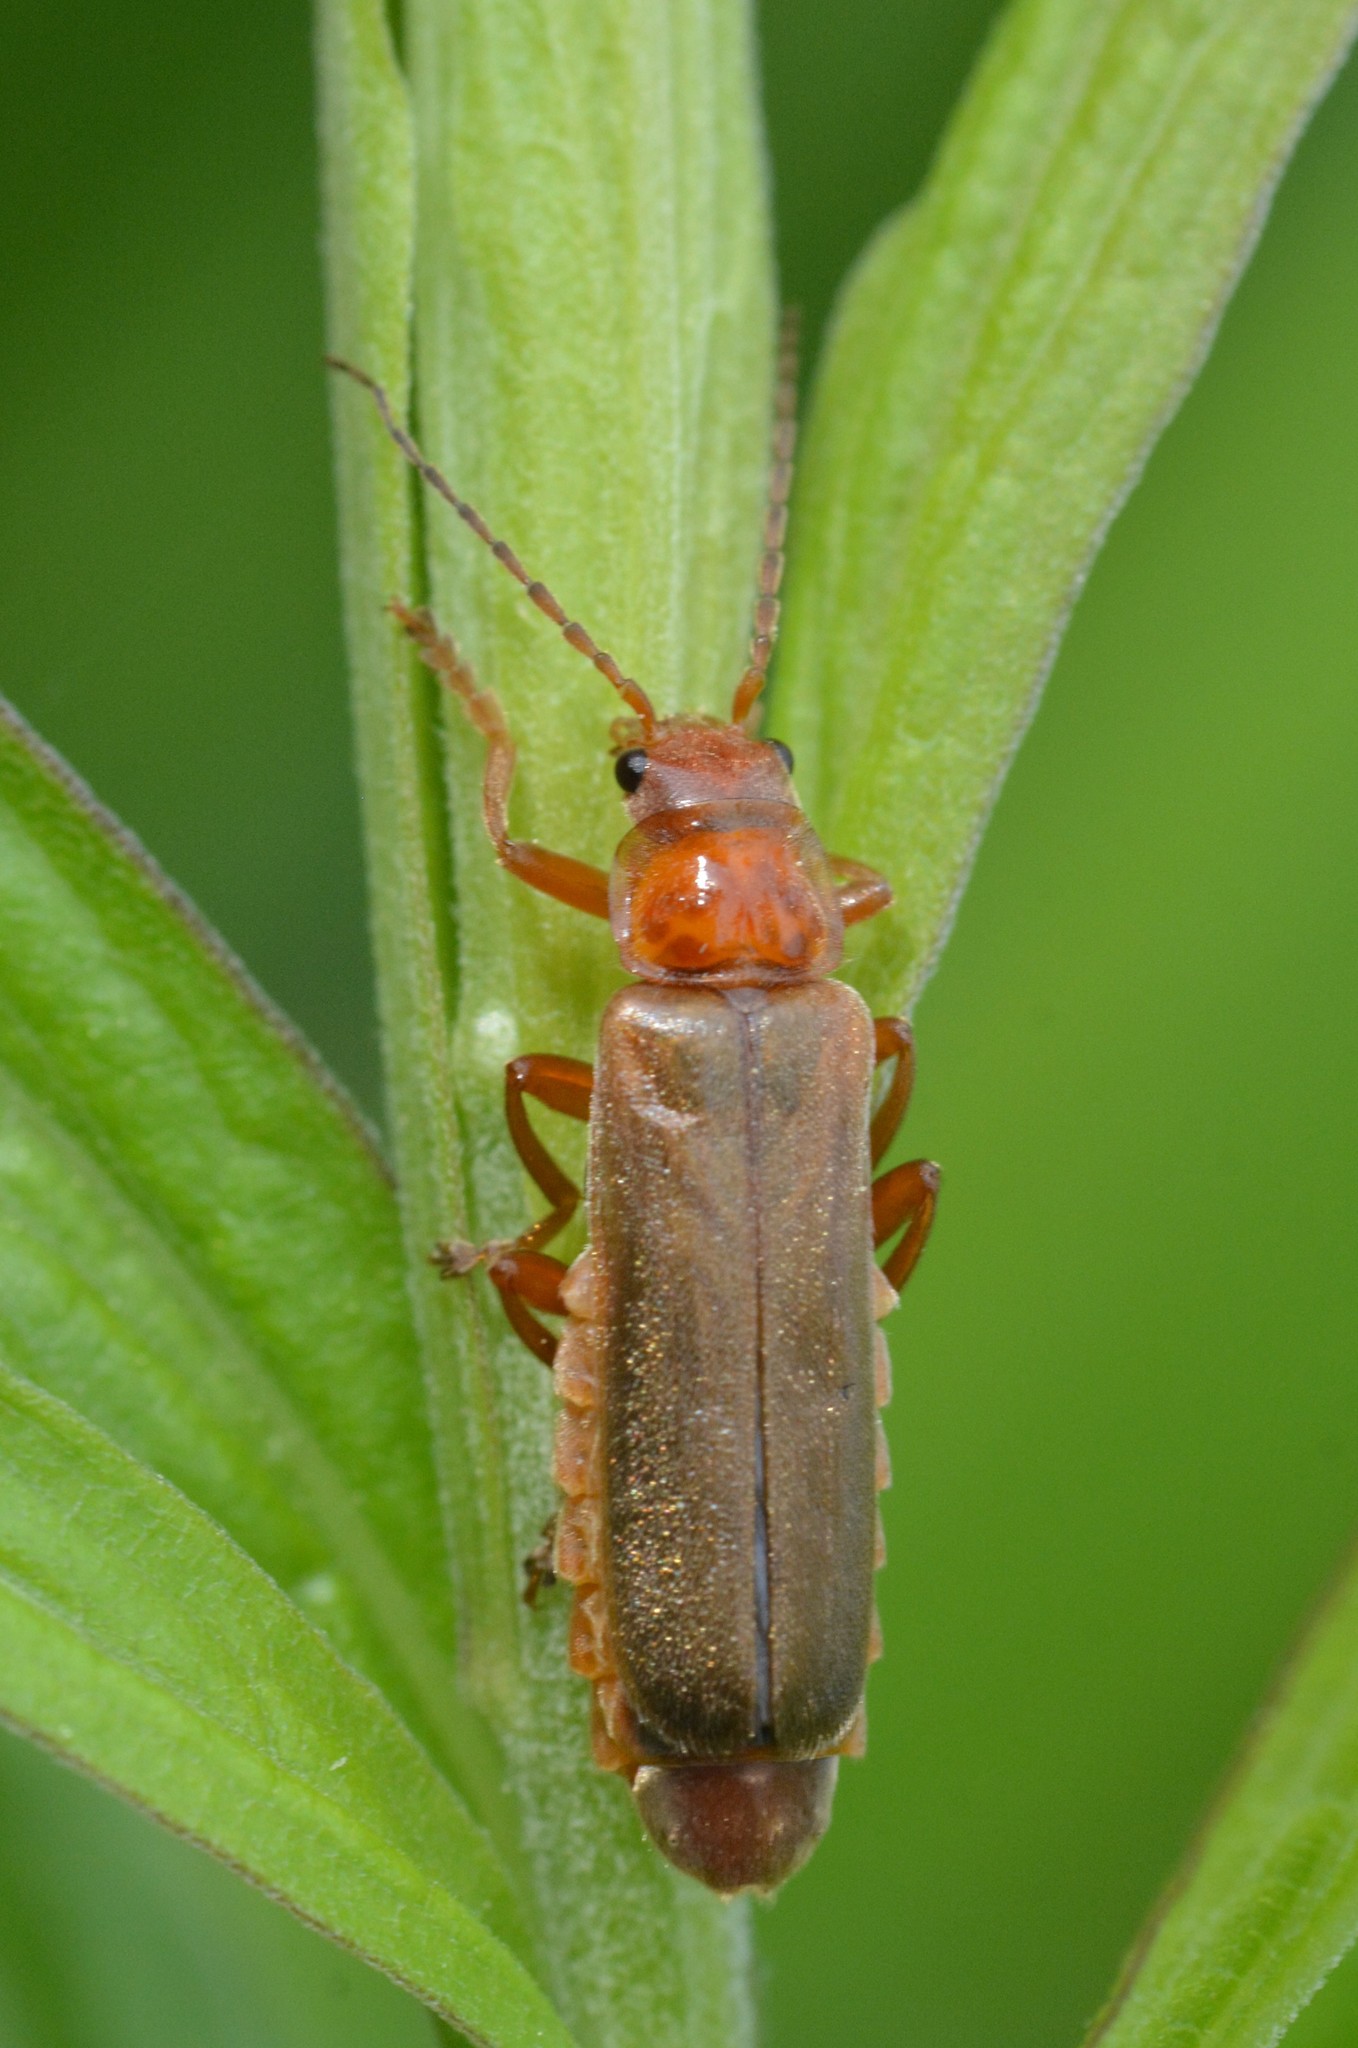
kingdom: Animalia
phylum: Arthropoda
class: Insecta
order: Coleoptera
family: Cantharidae
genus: Cantharis
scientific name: Cantharis rufa
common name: Red-spotted soldier beetle
